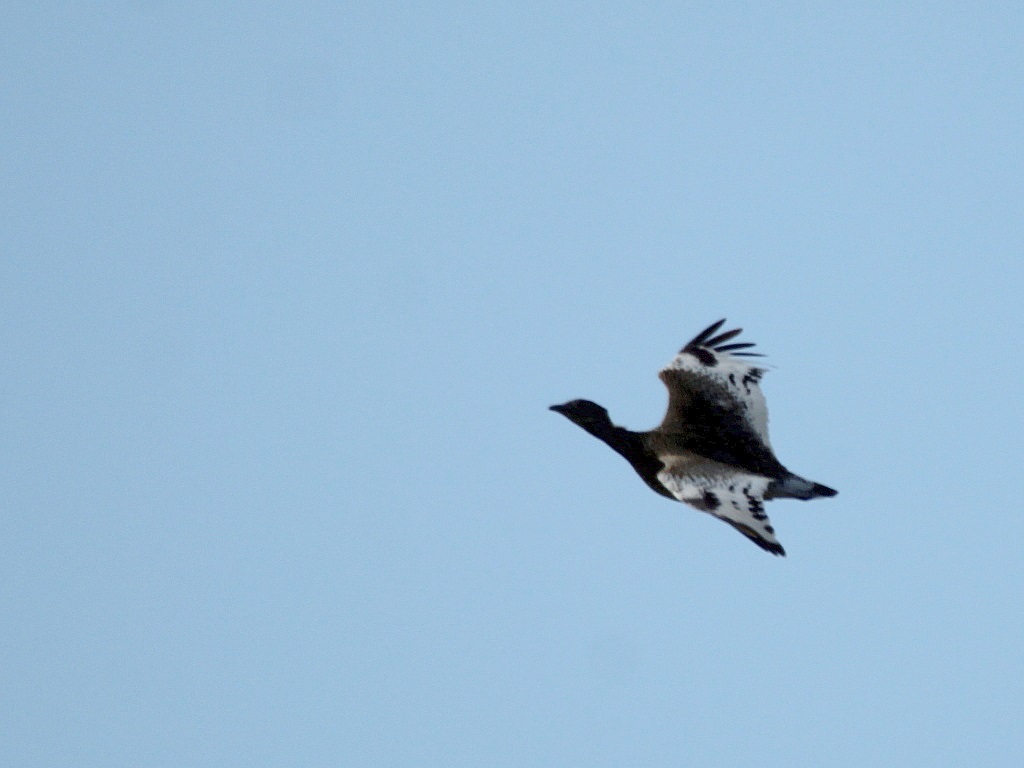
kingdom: Animalia
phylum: Chordata
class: Aves
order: Otidiformes
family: Otididae
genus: Tetrax
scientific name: Tetrax tetrax
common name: Little bustard
